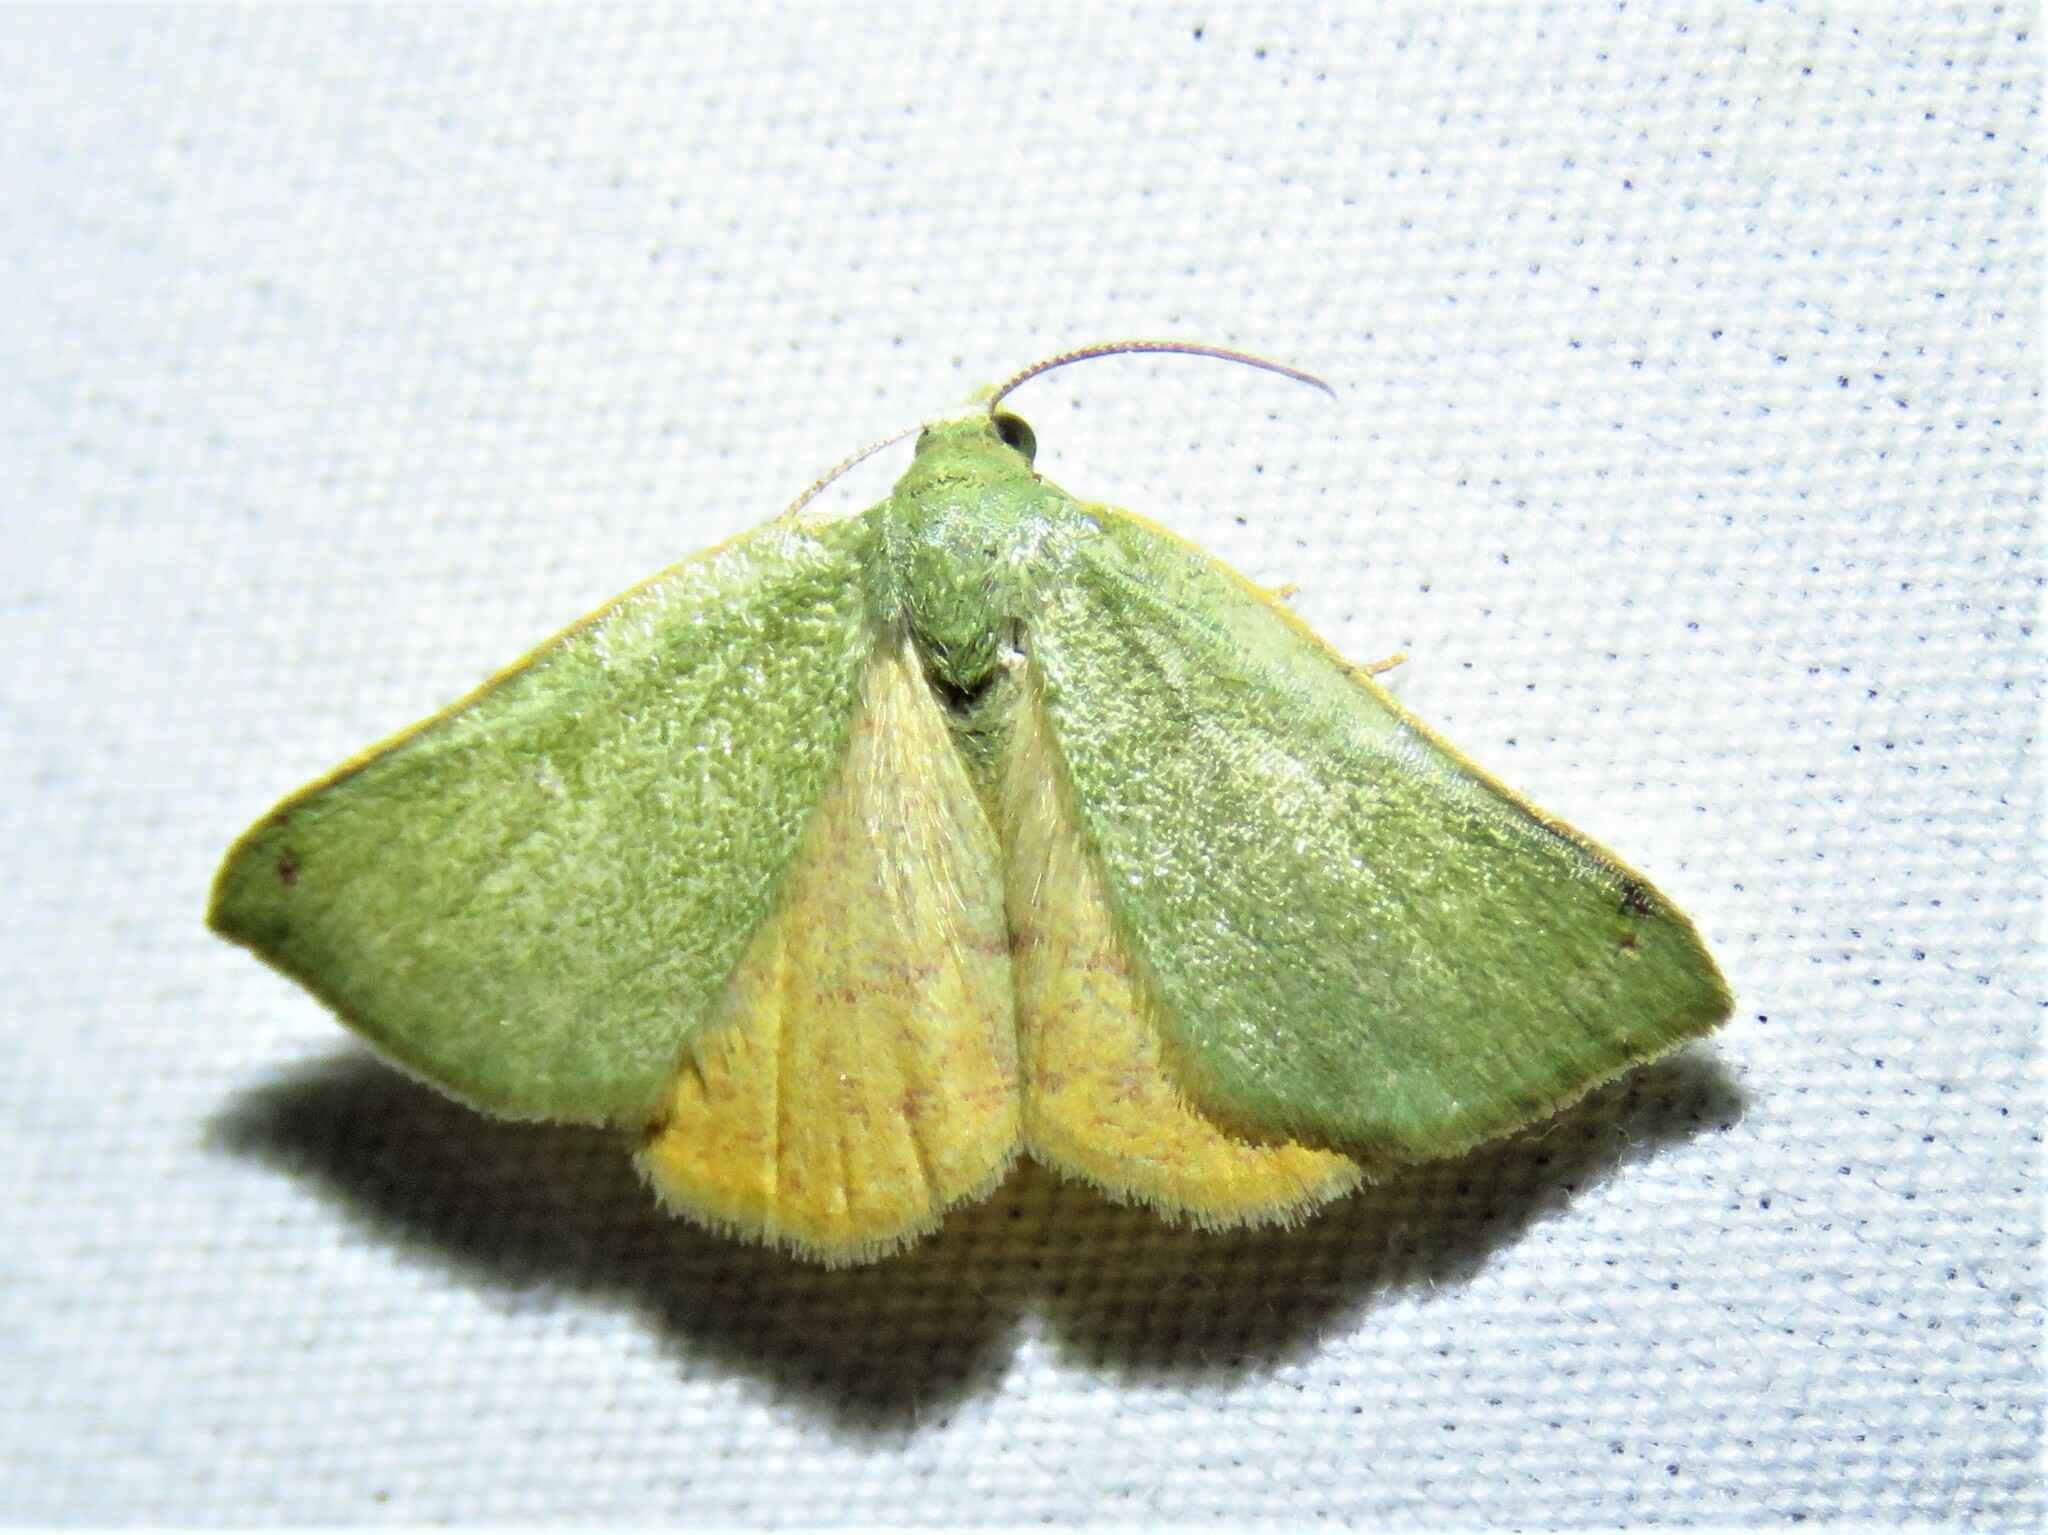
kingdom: Animalia
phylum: Arthropoda
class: Insecta
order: Lepidoptera
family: Geometridae
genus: Chloraspilates
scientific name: Chloraspilates bicoloraria
